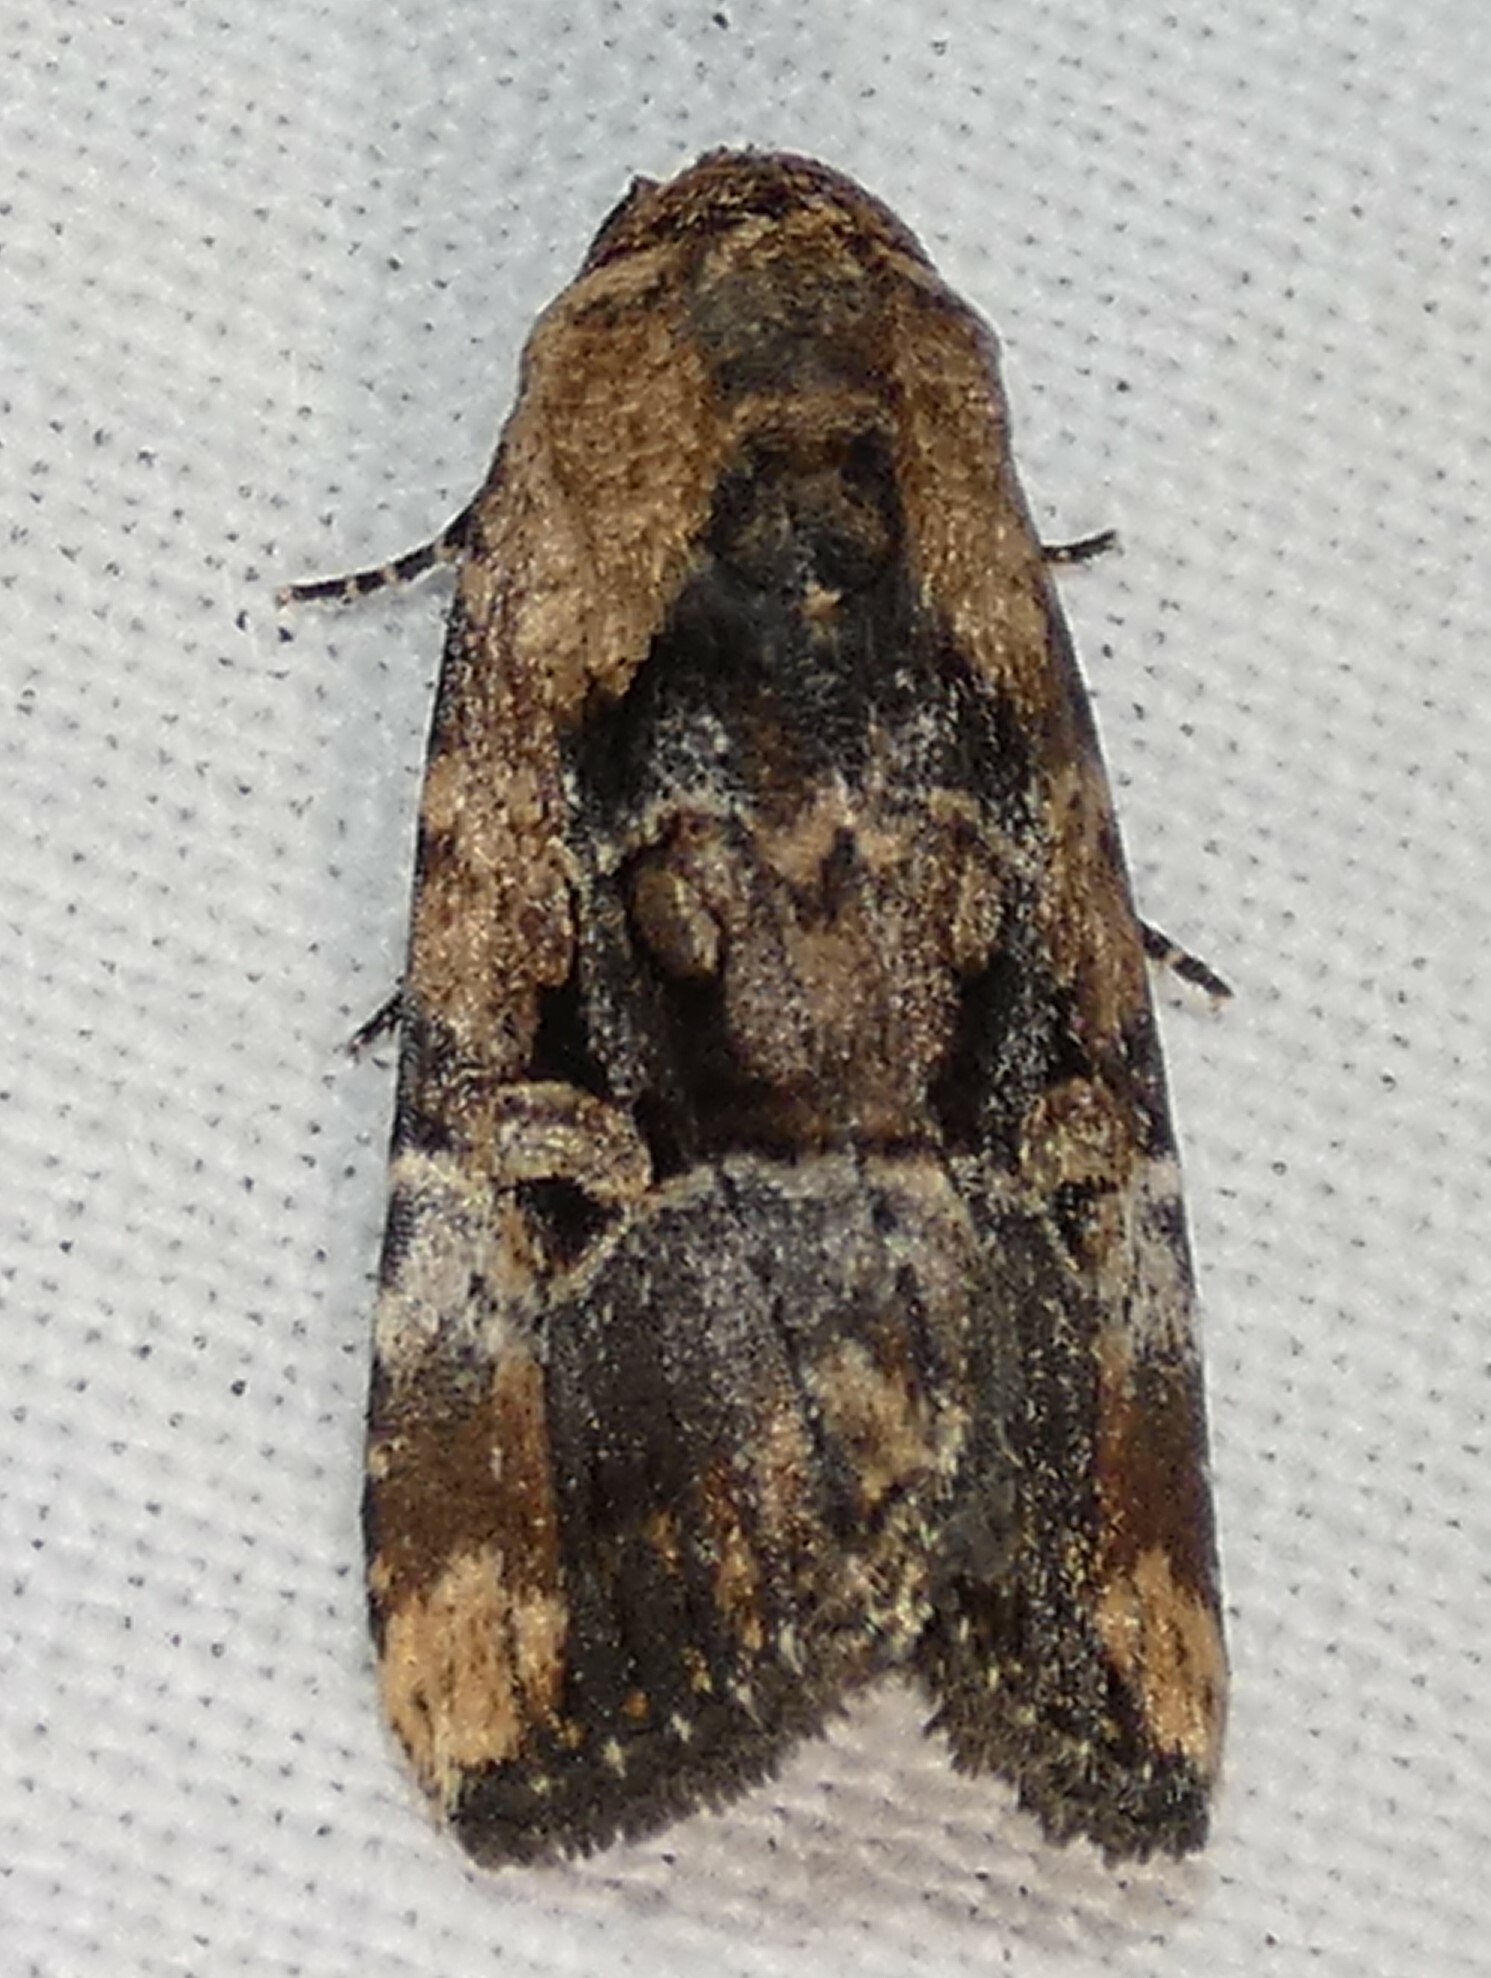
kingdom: Animalia
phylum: Arthropoda
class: Insecta
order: Lepidoptera
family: Noctuidae
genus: Elaphria
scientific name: Elaphria chalcedonia
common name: Chalcedony midget
